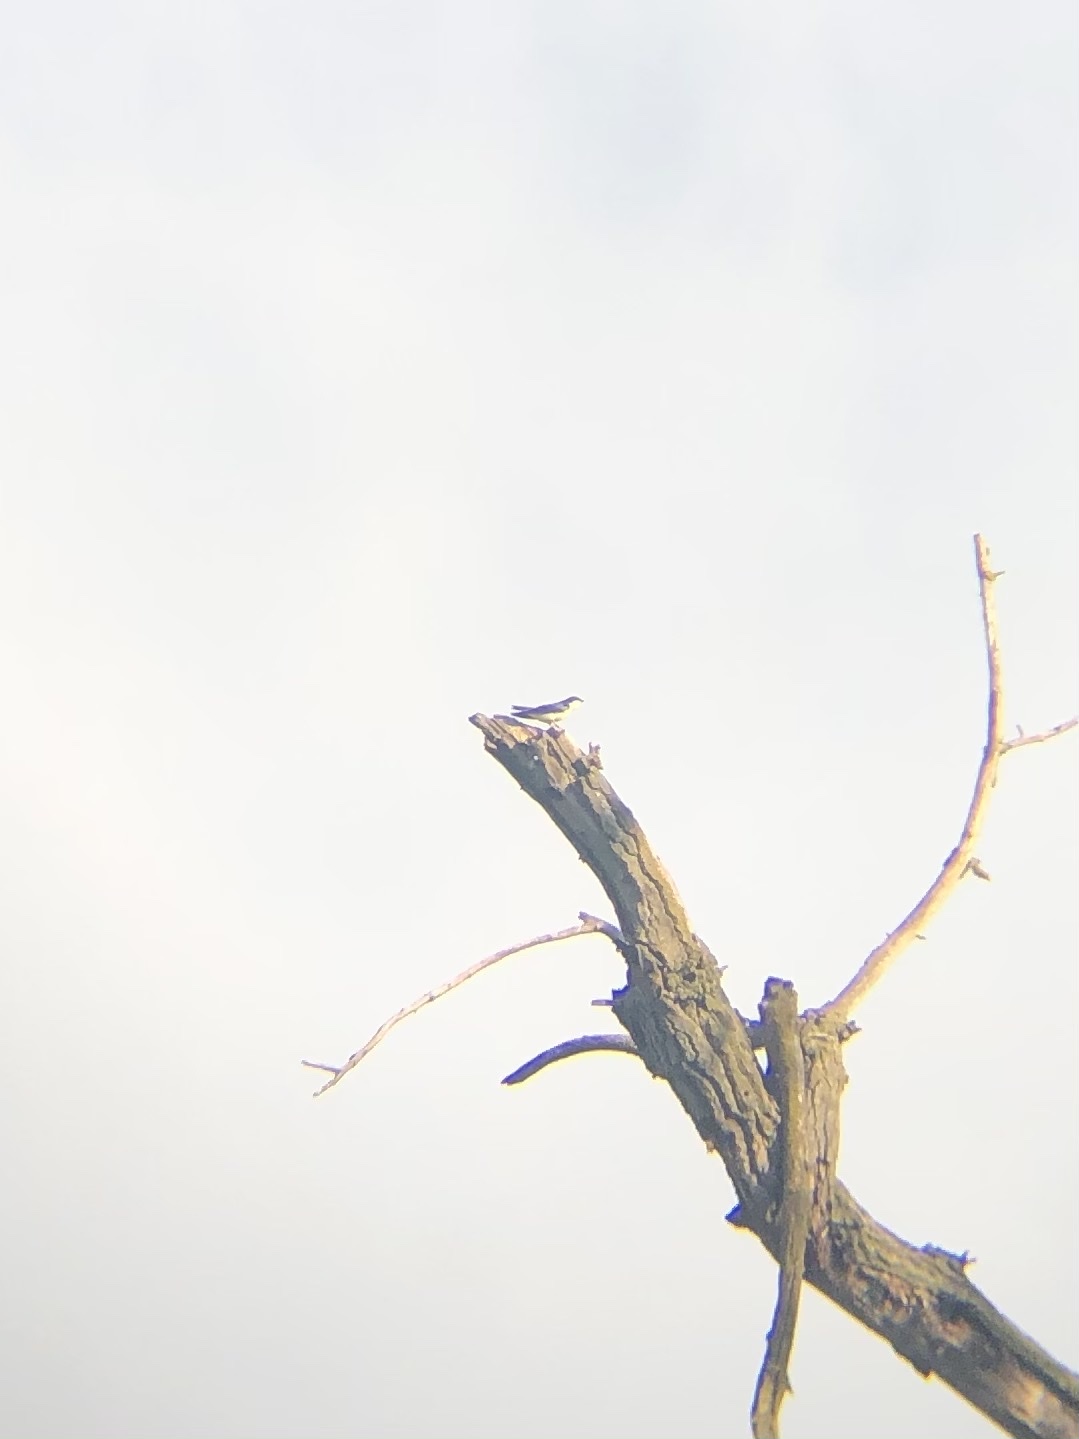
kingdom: Animalia
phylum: Chordata
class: Aves
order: Passeriformes
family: Hirundinidae
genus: Tachycineta
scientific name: Tachycineta bicolor
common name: Tree swallow
